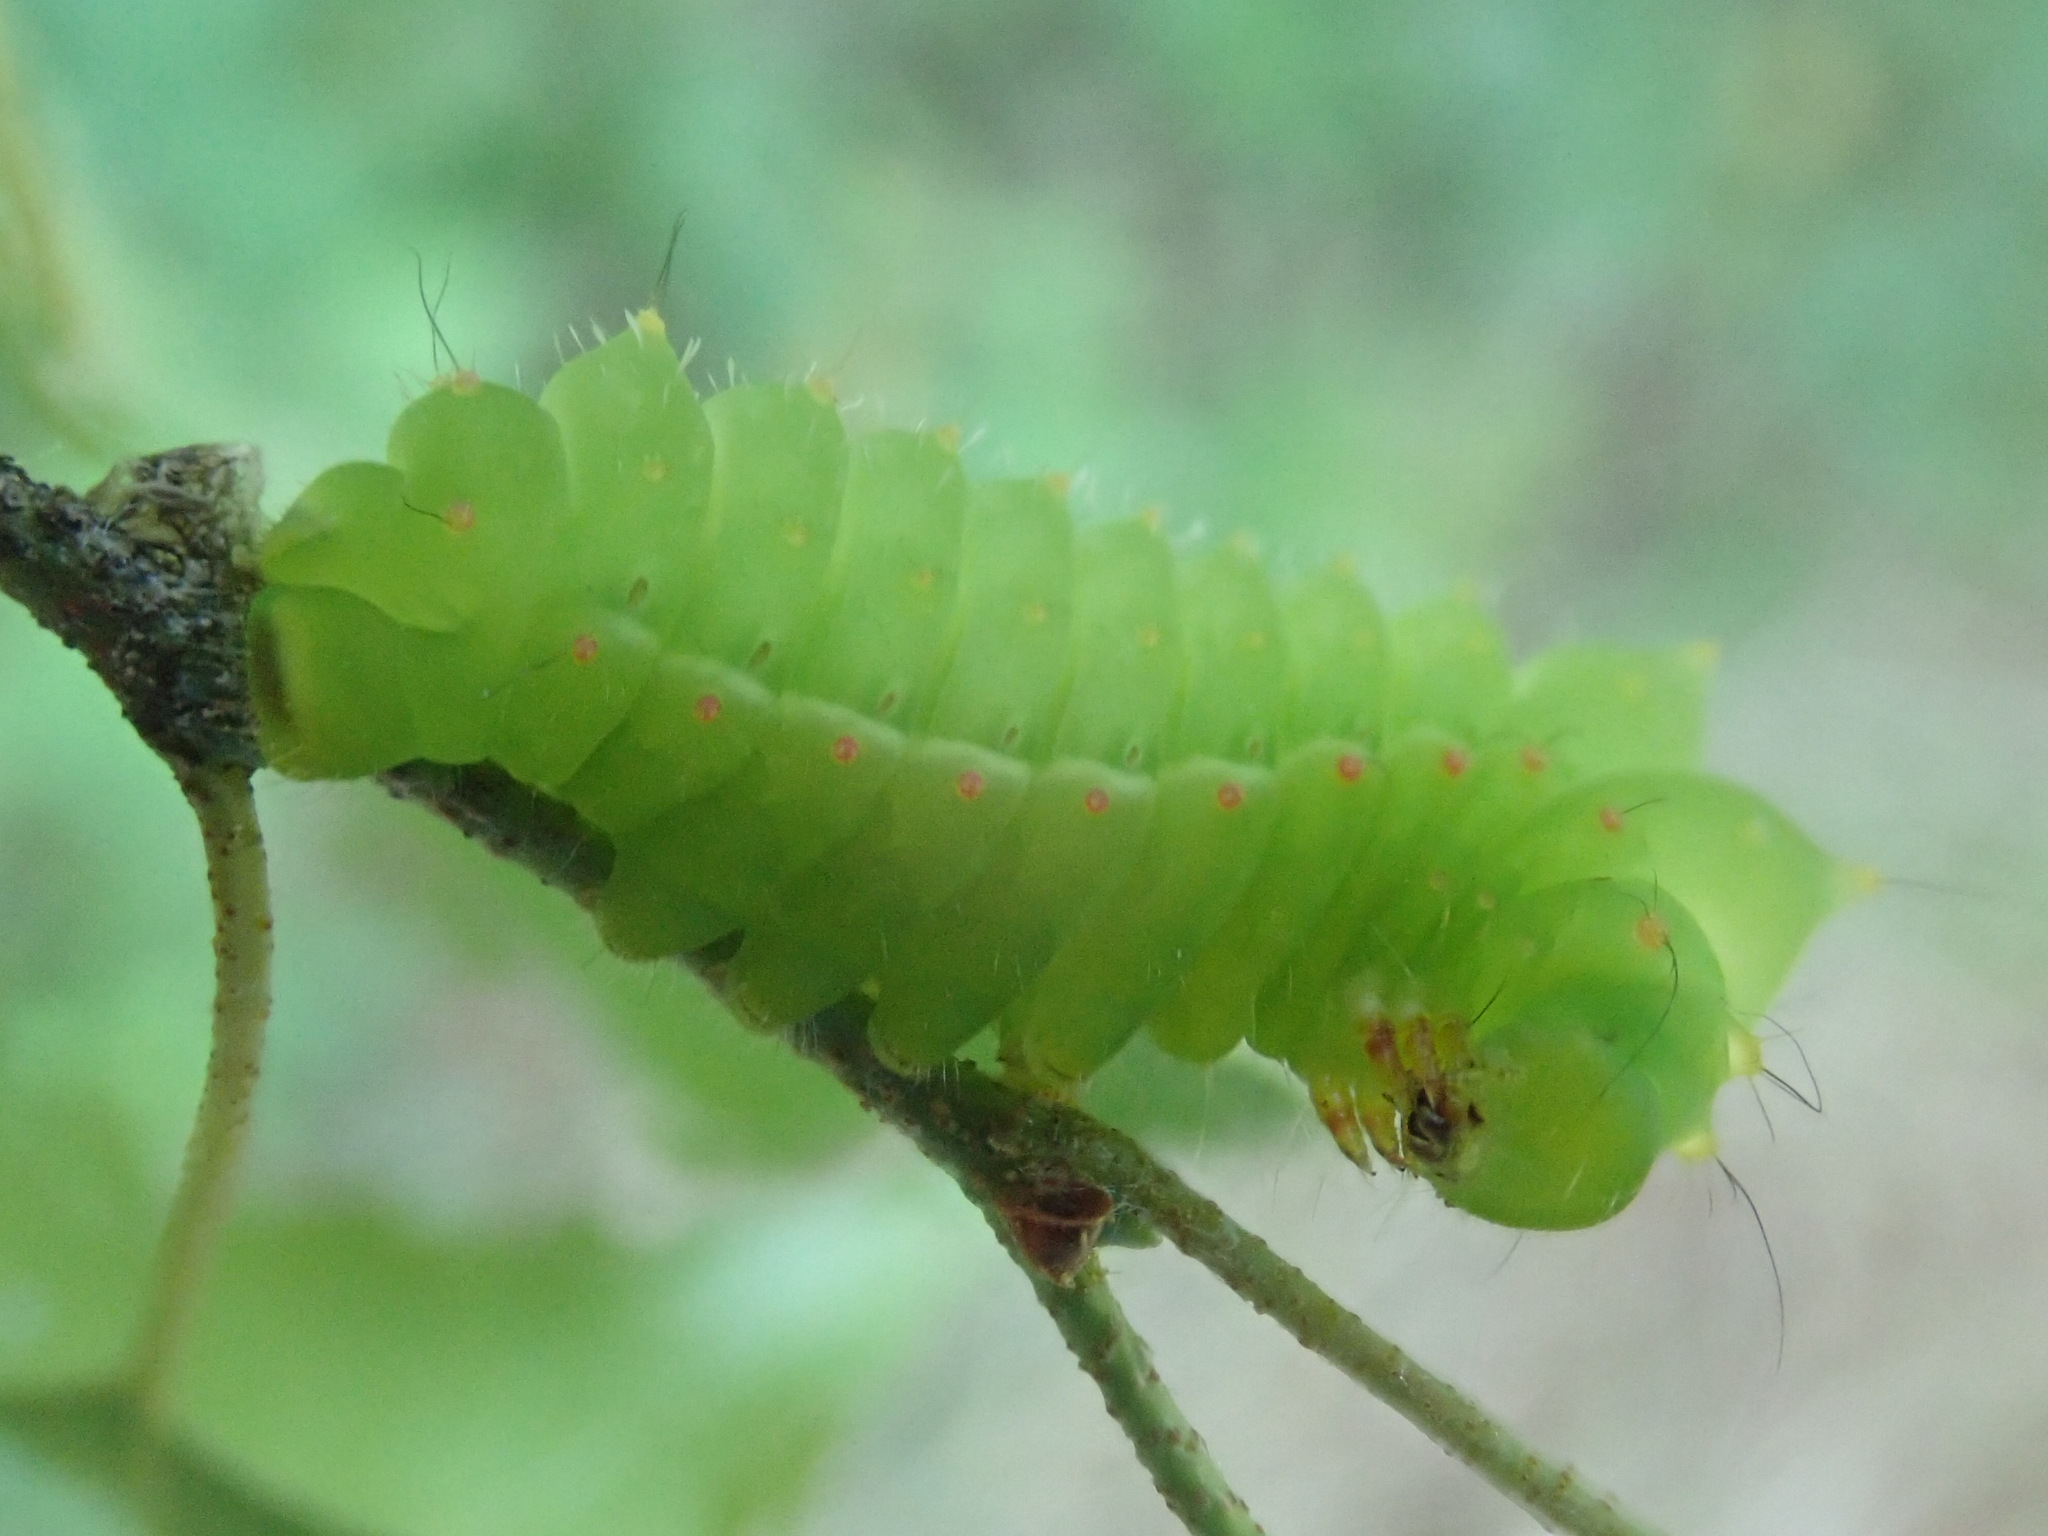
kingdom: Animalia
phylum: Arthropoda
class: Insecta
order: Lepidoptera
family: Saturniidae
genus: Antheraea
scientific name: Antheraea polyphemus
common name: Polyphemus moth
